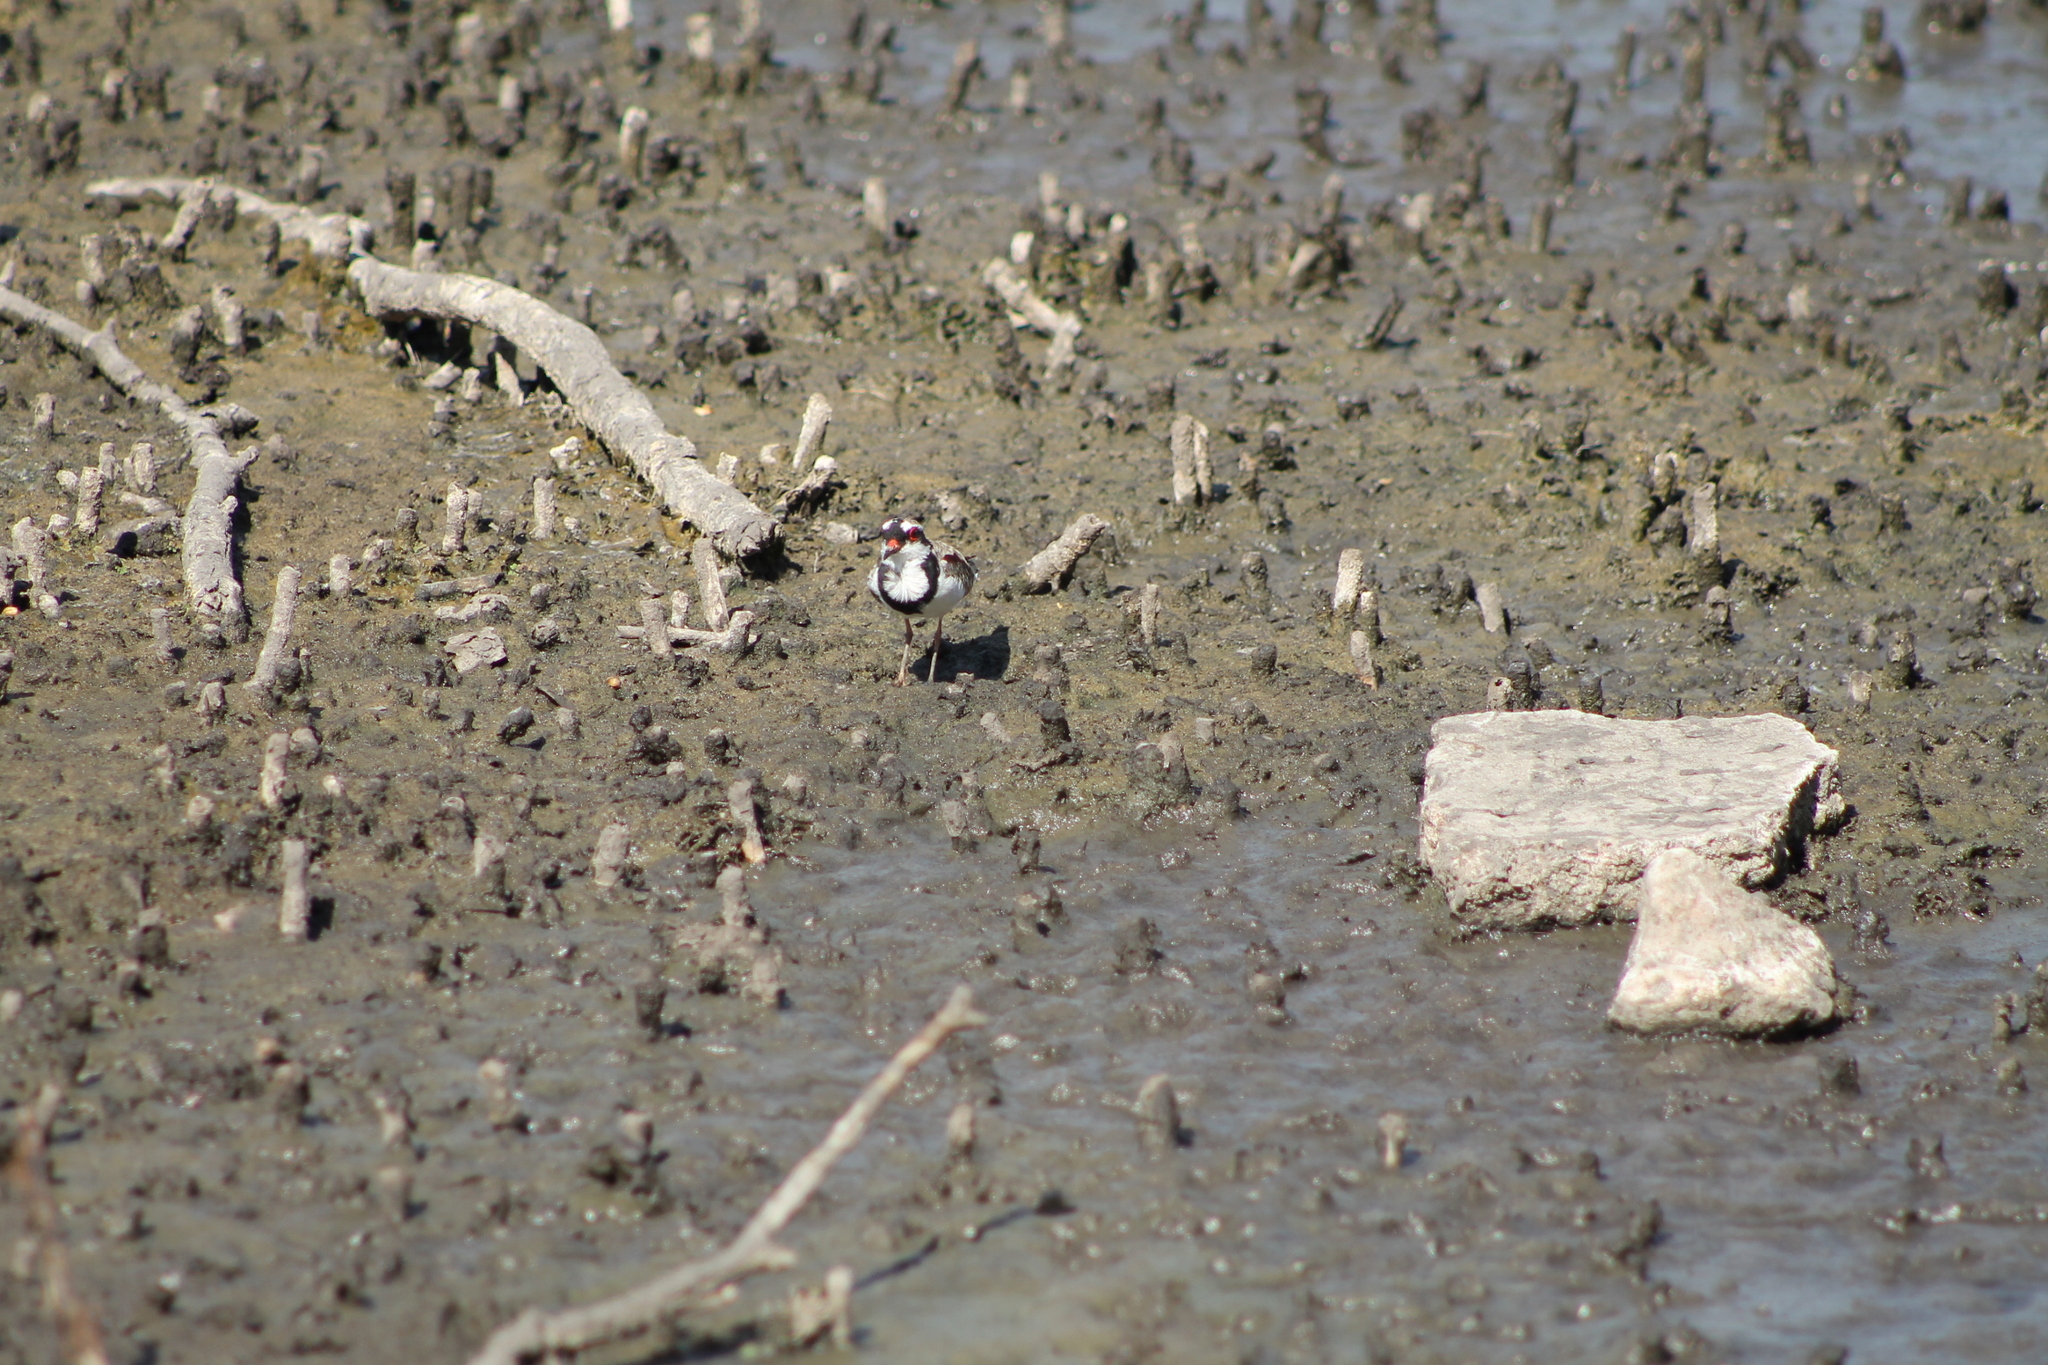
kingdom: Animalia
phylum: Chordata
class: Aves
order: Charadriiformes
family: Charadriidae
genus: Elseyornis
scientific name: Elseyornis melanops
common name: Black-fronted dotterel
